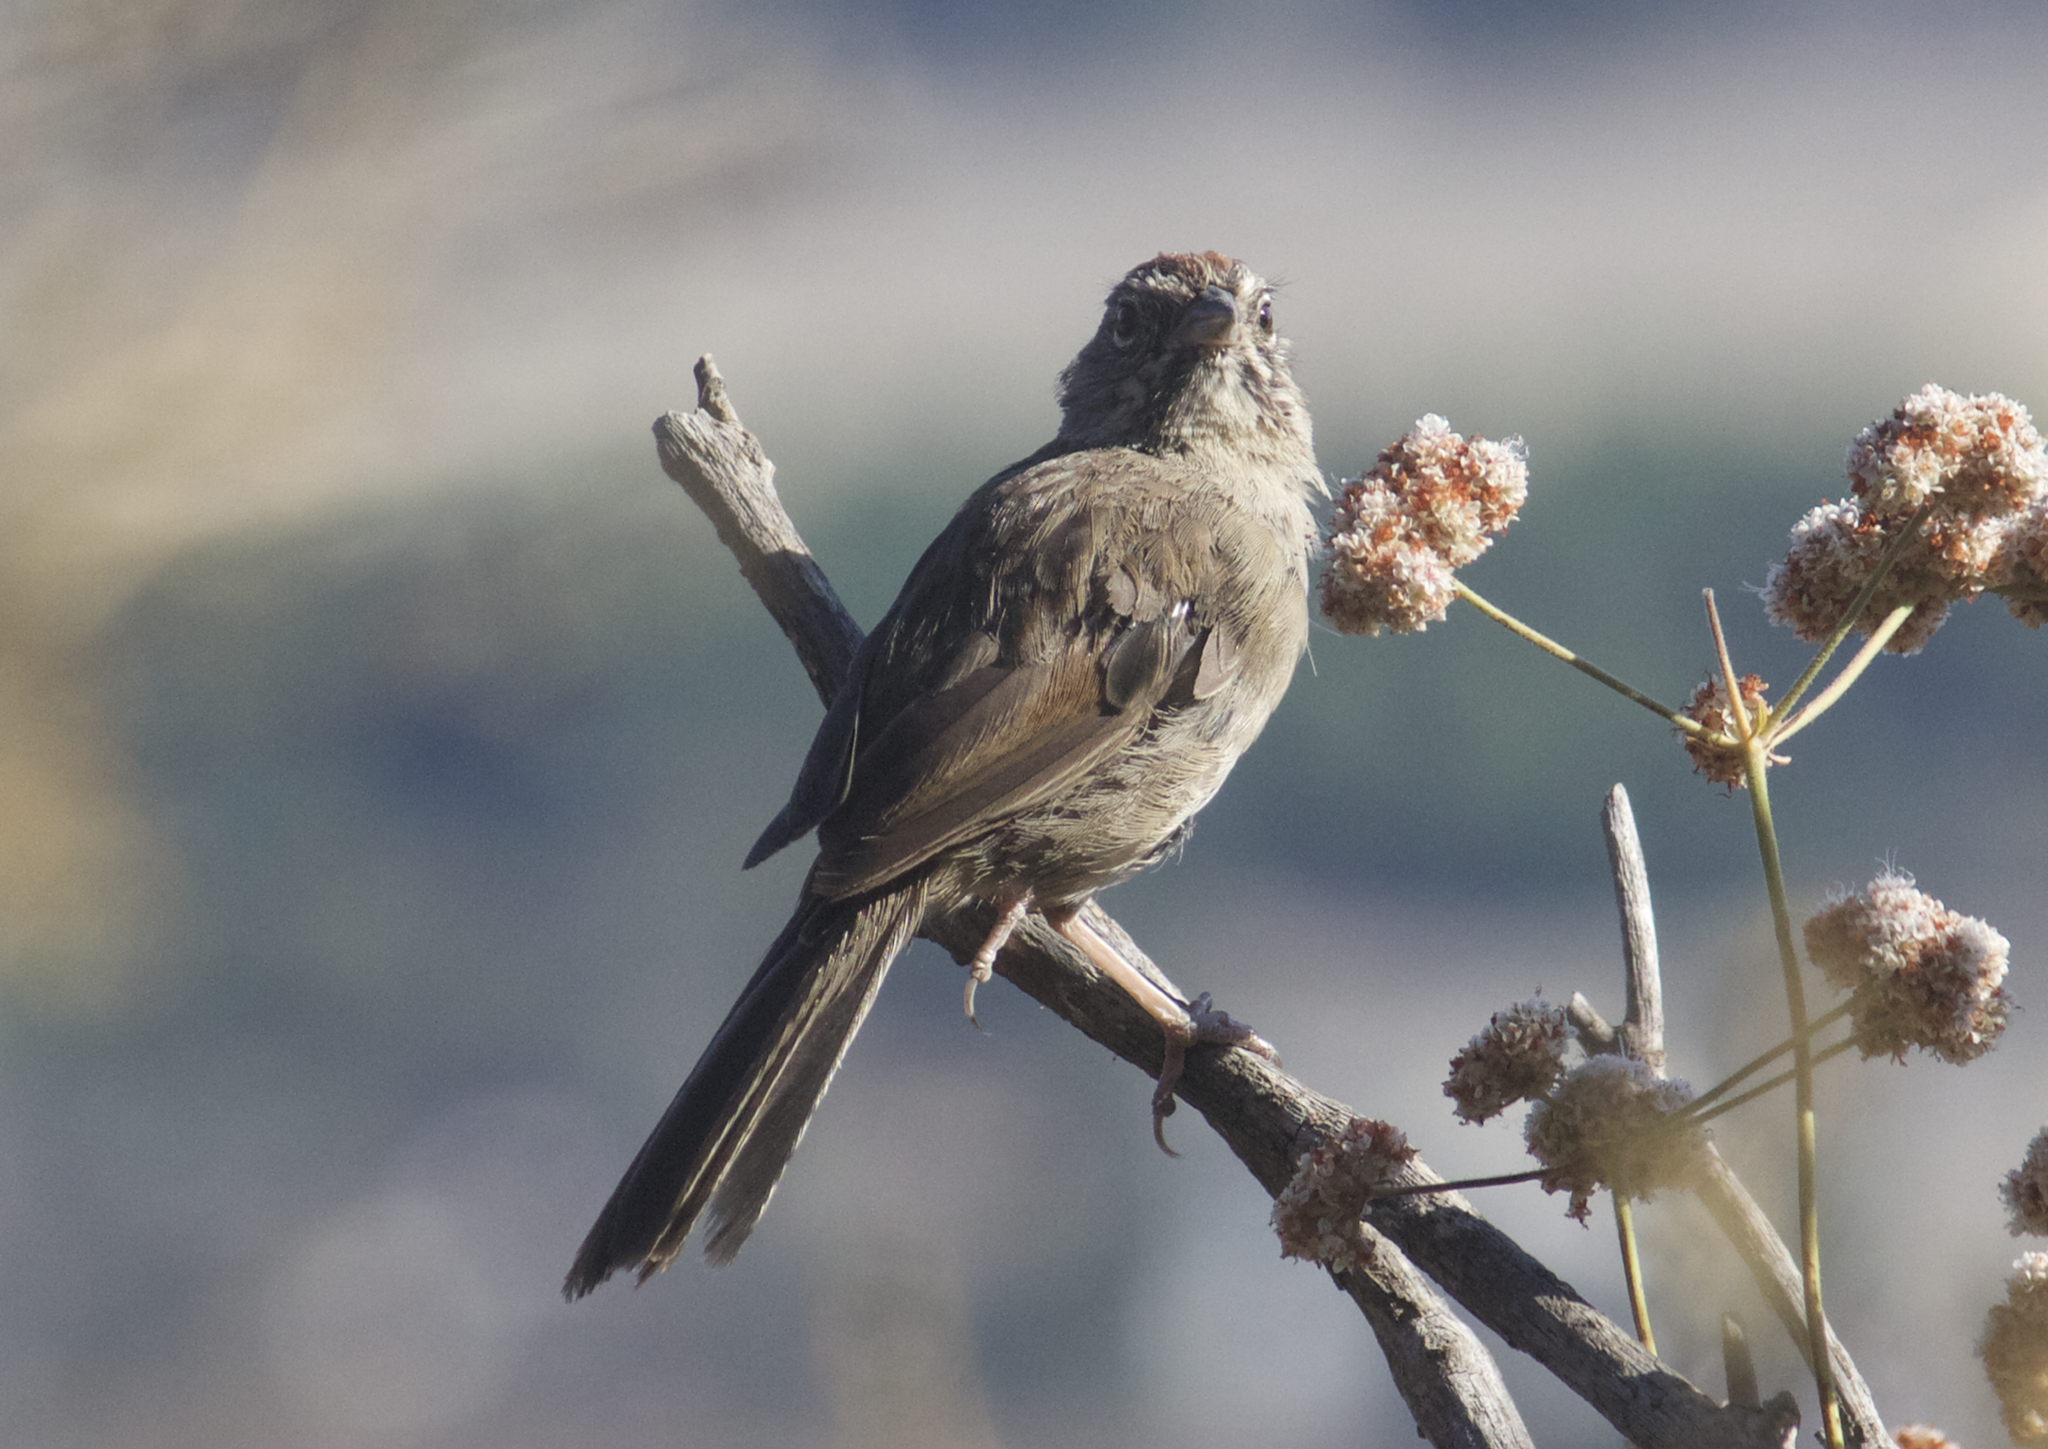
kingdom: Animalia
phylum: Chordata
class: Aves
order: Passeriformes
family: Passerellidae
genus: Aimophila
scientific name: Aimophila ruficeps
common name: Rufous-crowned sparrow
